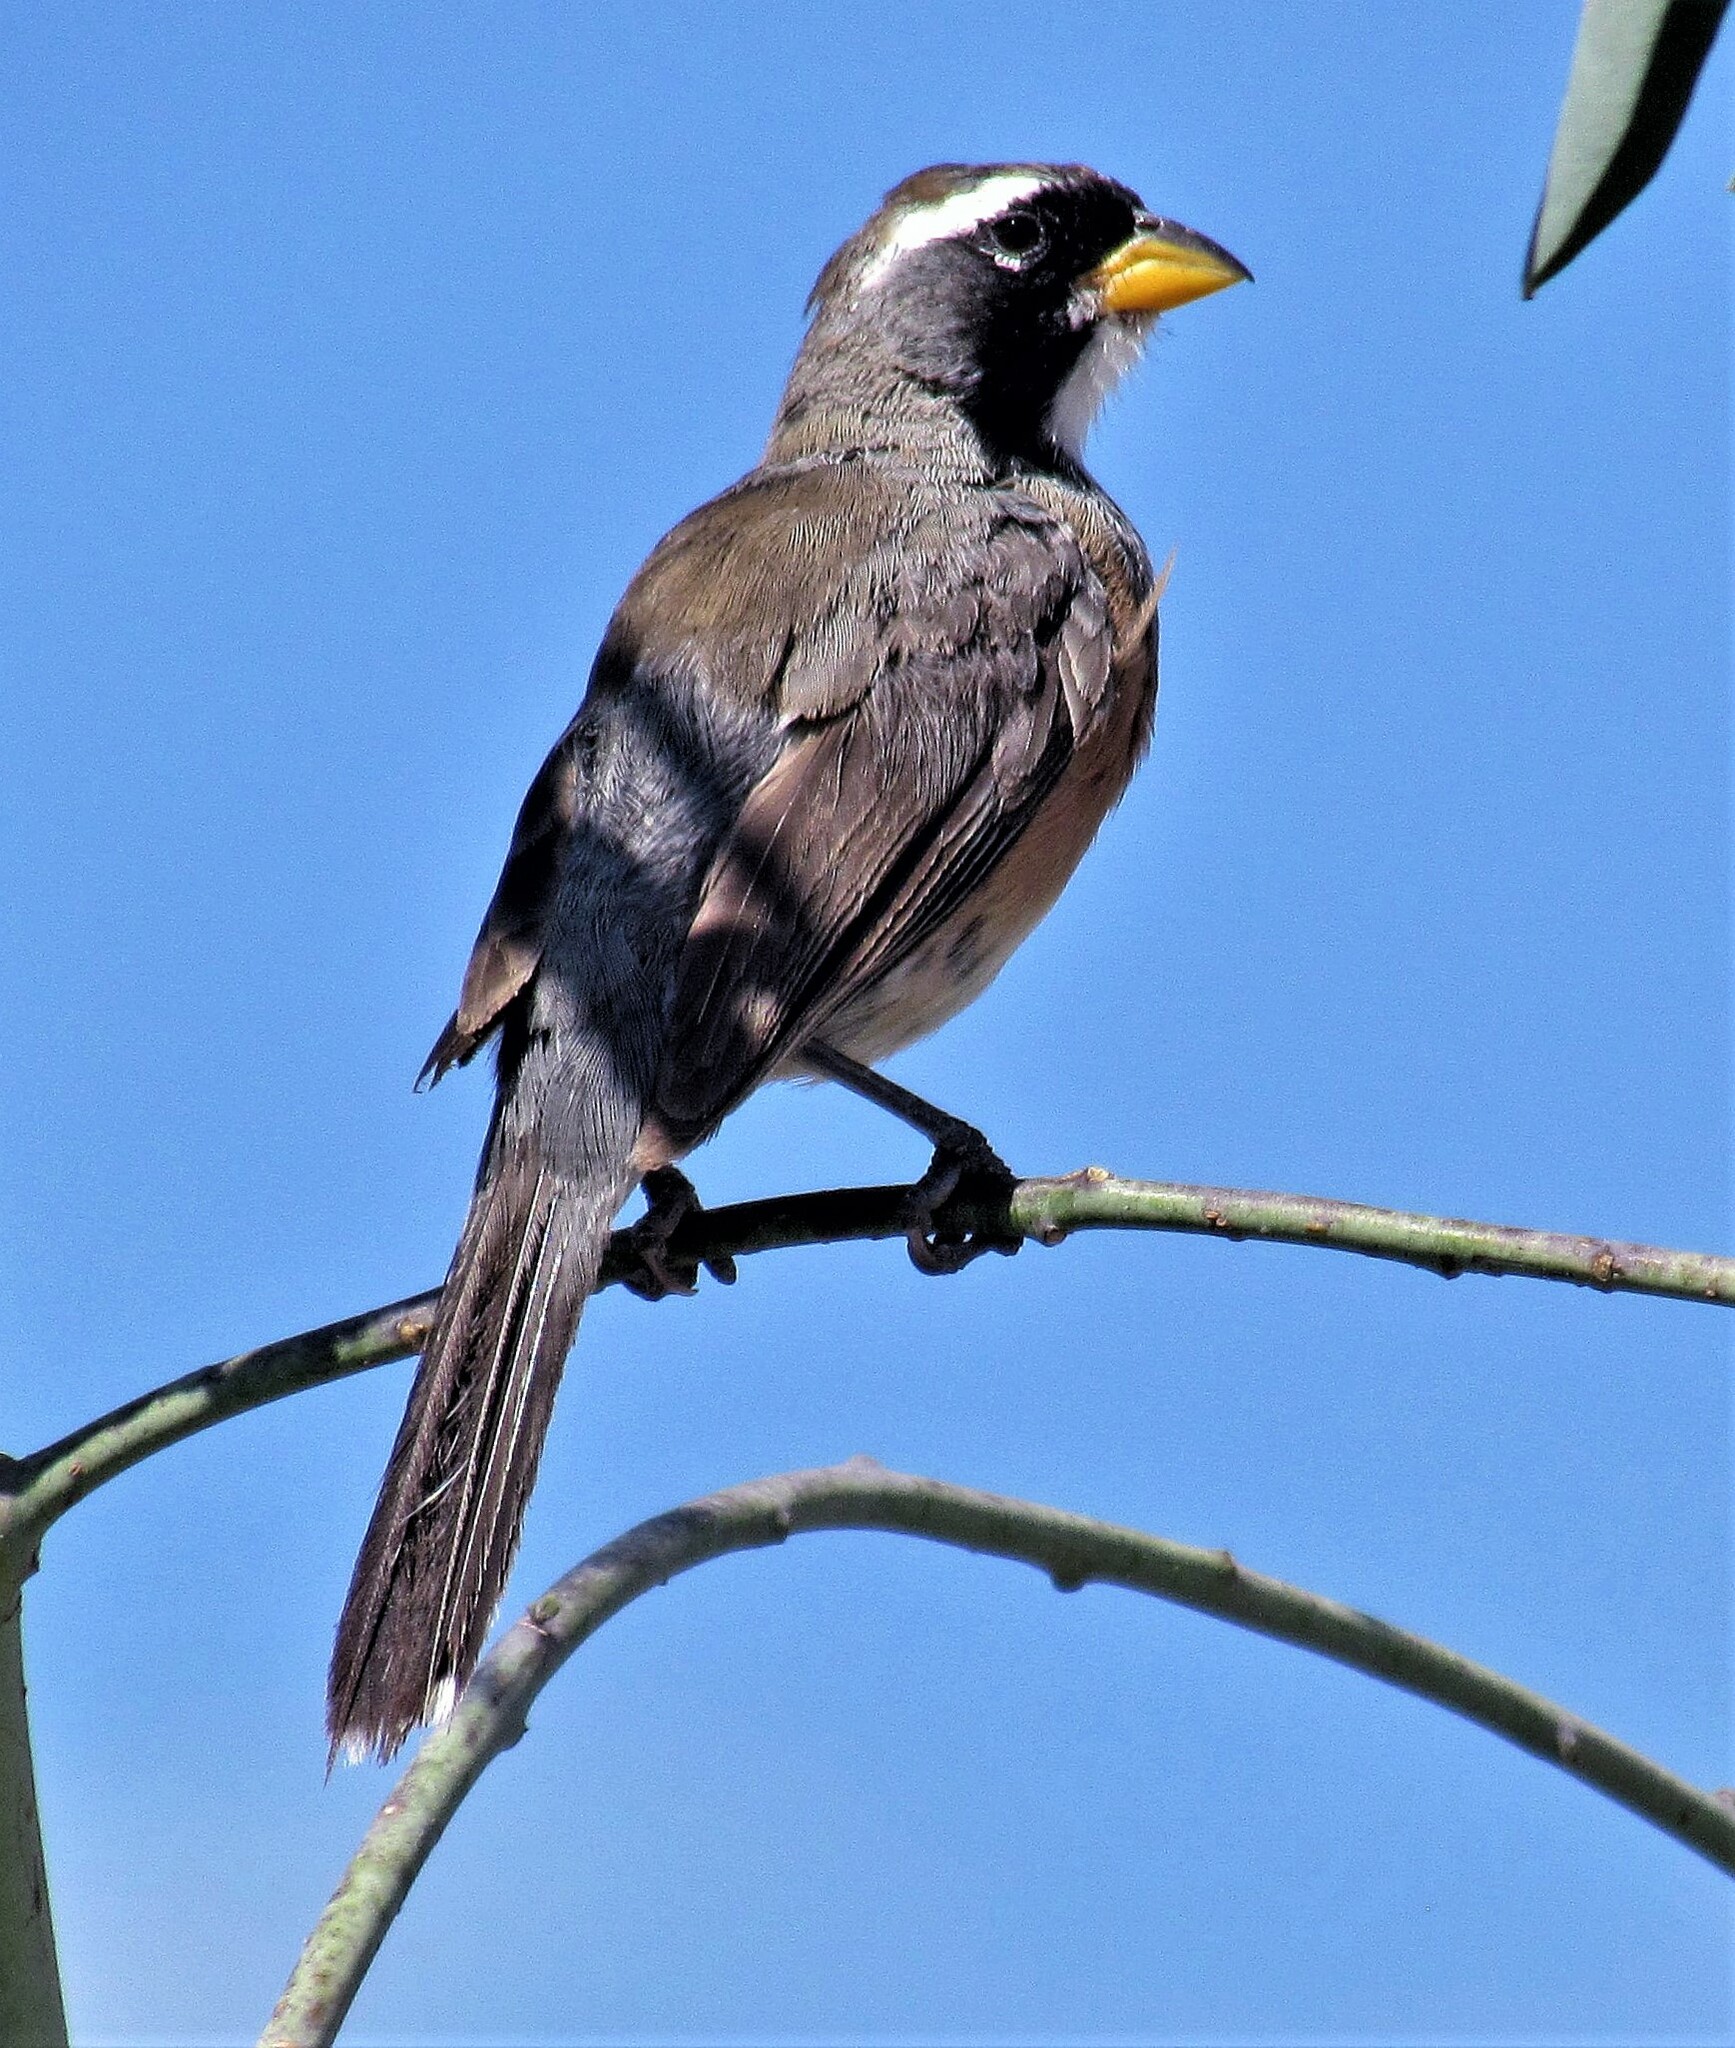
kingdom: Animalia
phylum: Chordata
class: Aves
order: Passeriformes
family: Thraupidae
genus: Saltatricula
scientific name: Saltatricula multicolor
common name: Many-colored chaco finch
